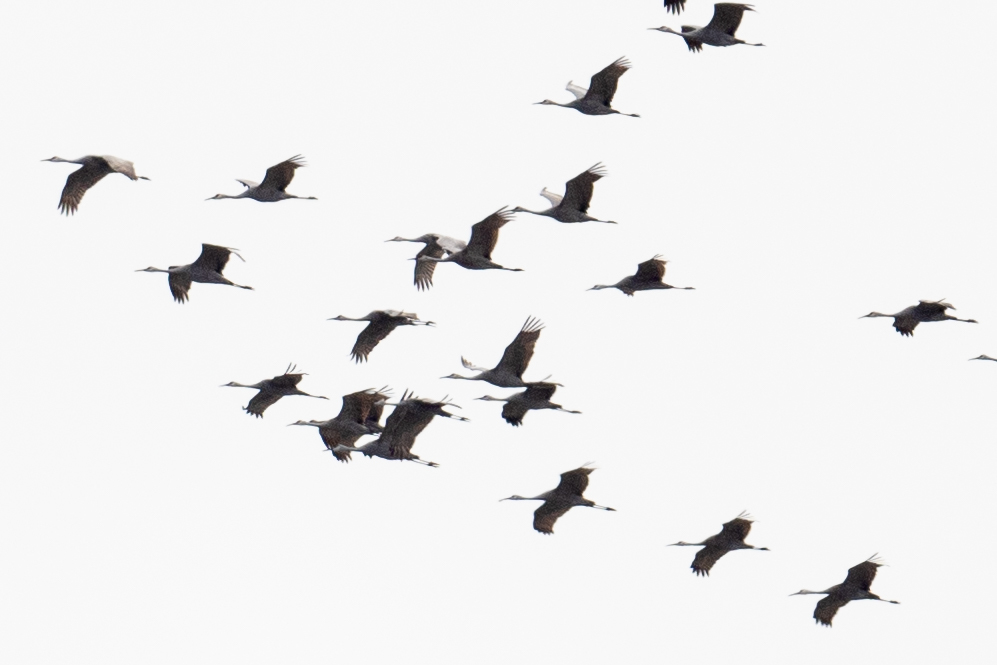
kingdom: Animalia
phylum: Chordata
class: Aves
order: Gruiformes
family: Gruidae
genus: Grus
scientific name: Grus canadensis
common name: Sandhill crane
